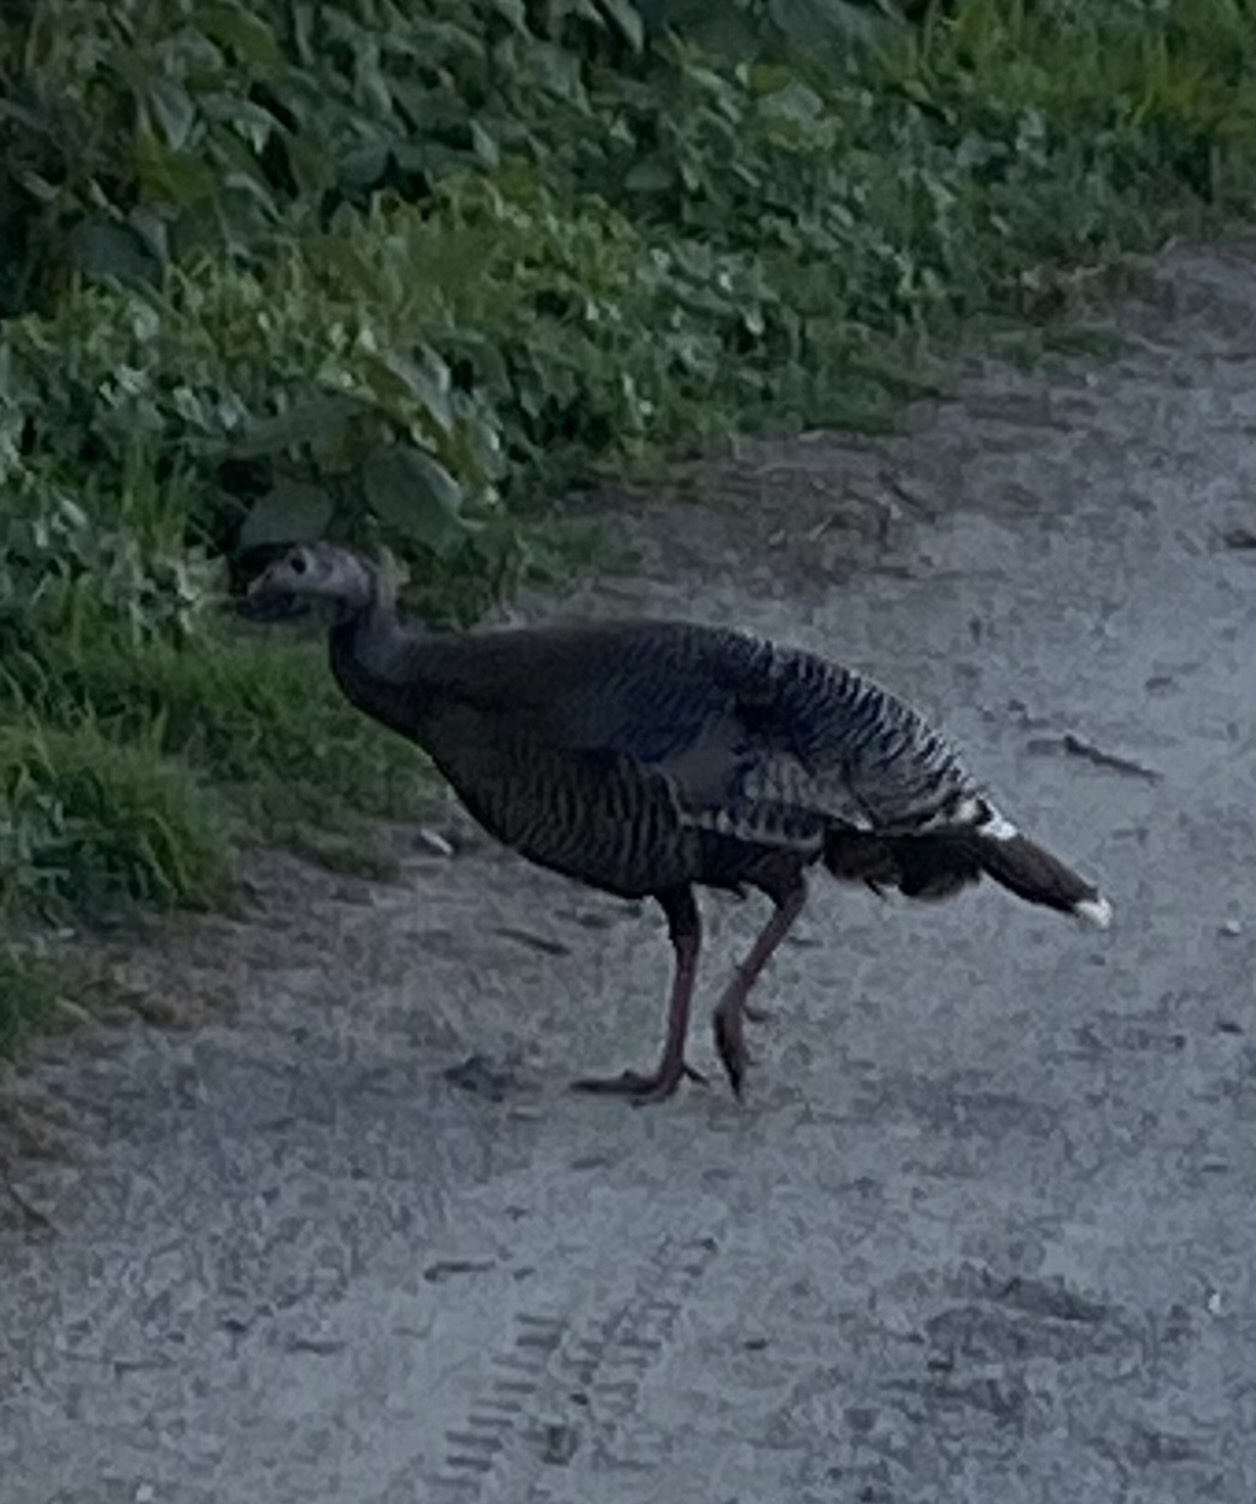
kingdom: Animalia
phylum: Chordata
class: Aves
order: Galliformes
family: Phasianidae
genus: Meleagris
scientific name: Meleagris gallopavo
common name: Wild turkey
